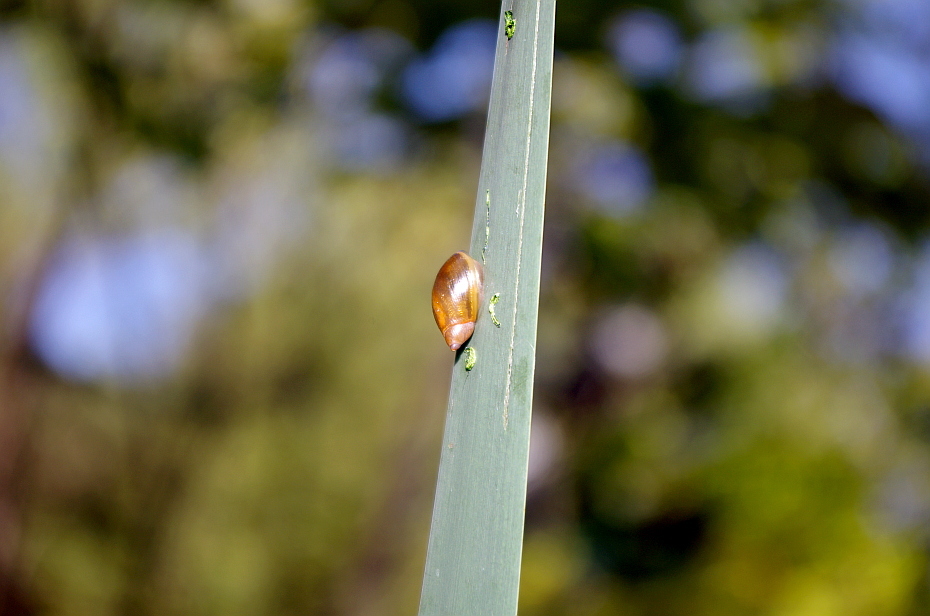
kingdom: Animalia
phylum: Mollusca
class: Gastropoda
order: Stylommatophora
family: Succineidae
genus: Succinea
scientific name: Succinea putris
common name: European ambersnail
